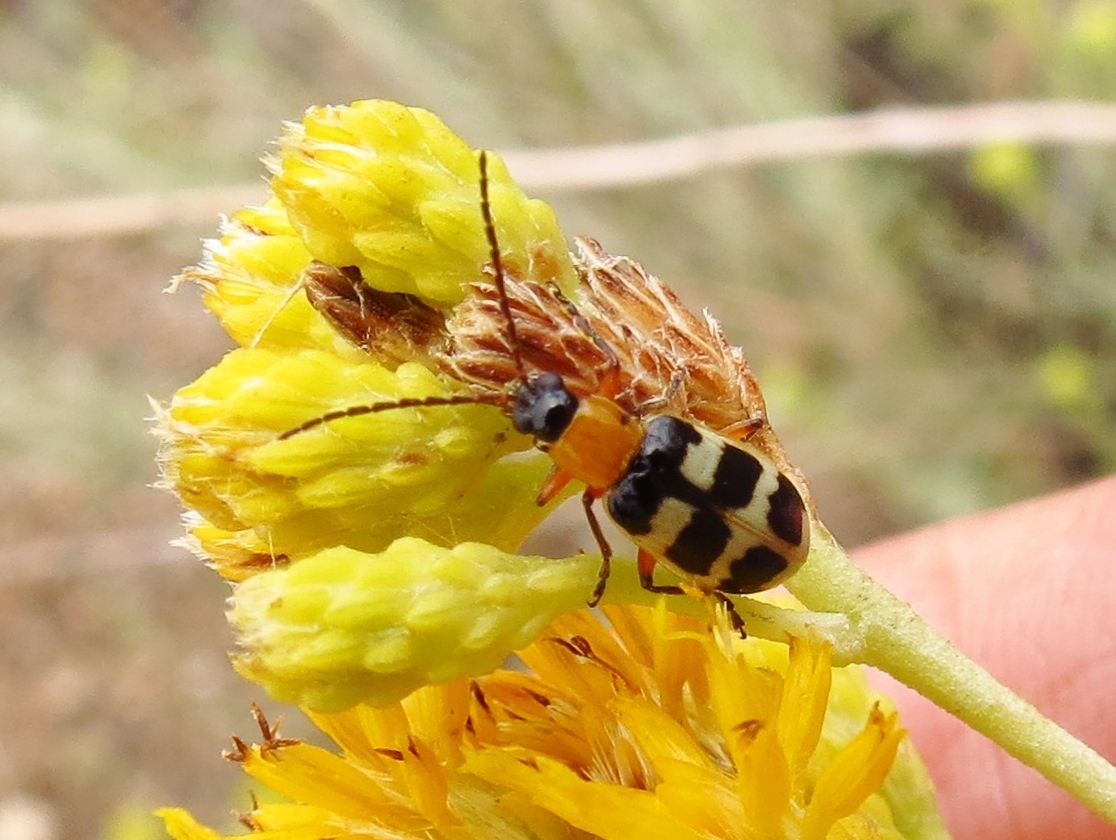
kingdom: Animalia
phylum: Arthropoda
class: Insecta
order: Coleoptera
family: Chrysomelidae
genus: Paranapiacaba
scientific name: Paranapiacaba tricincta
